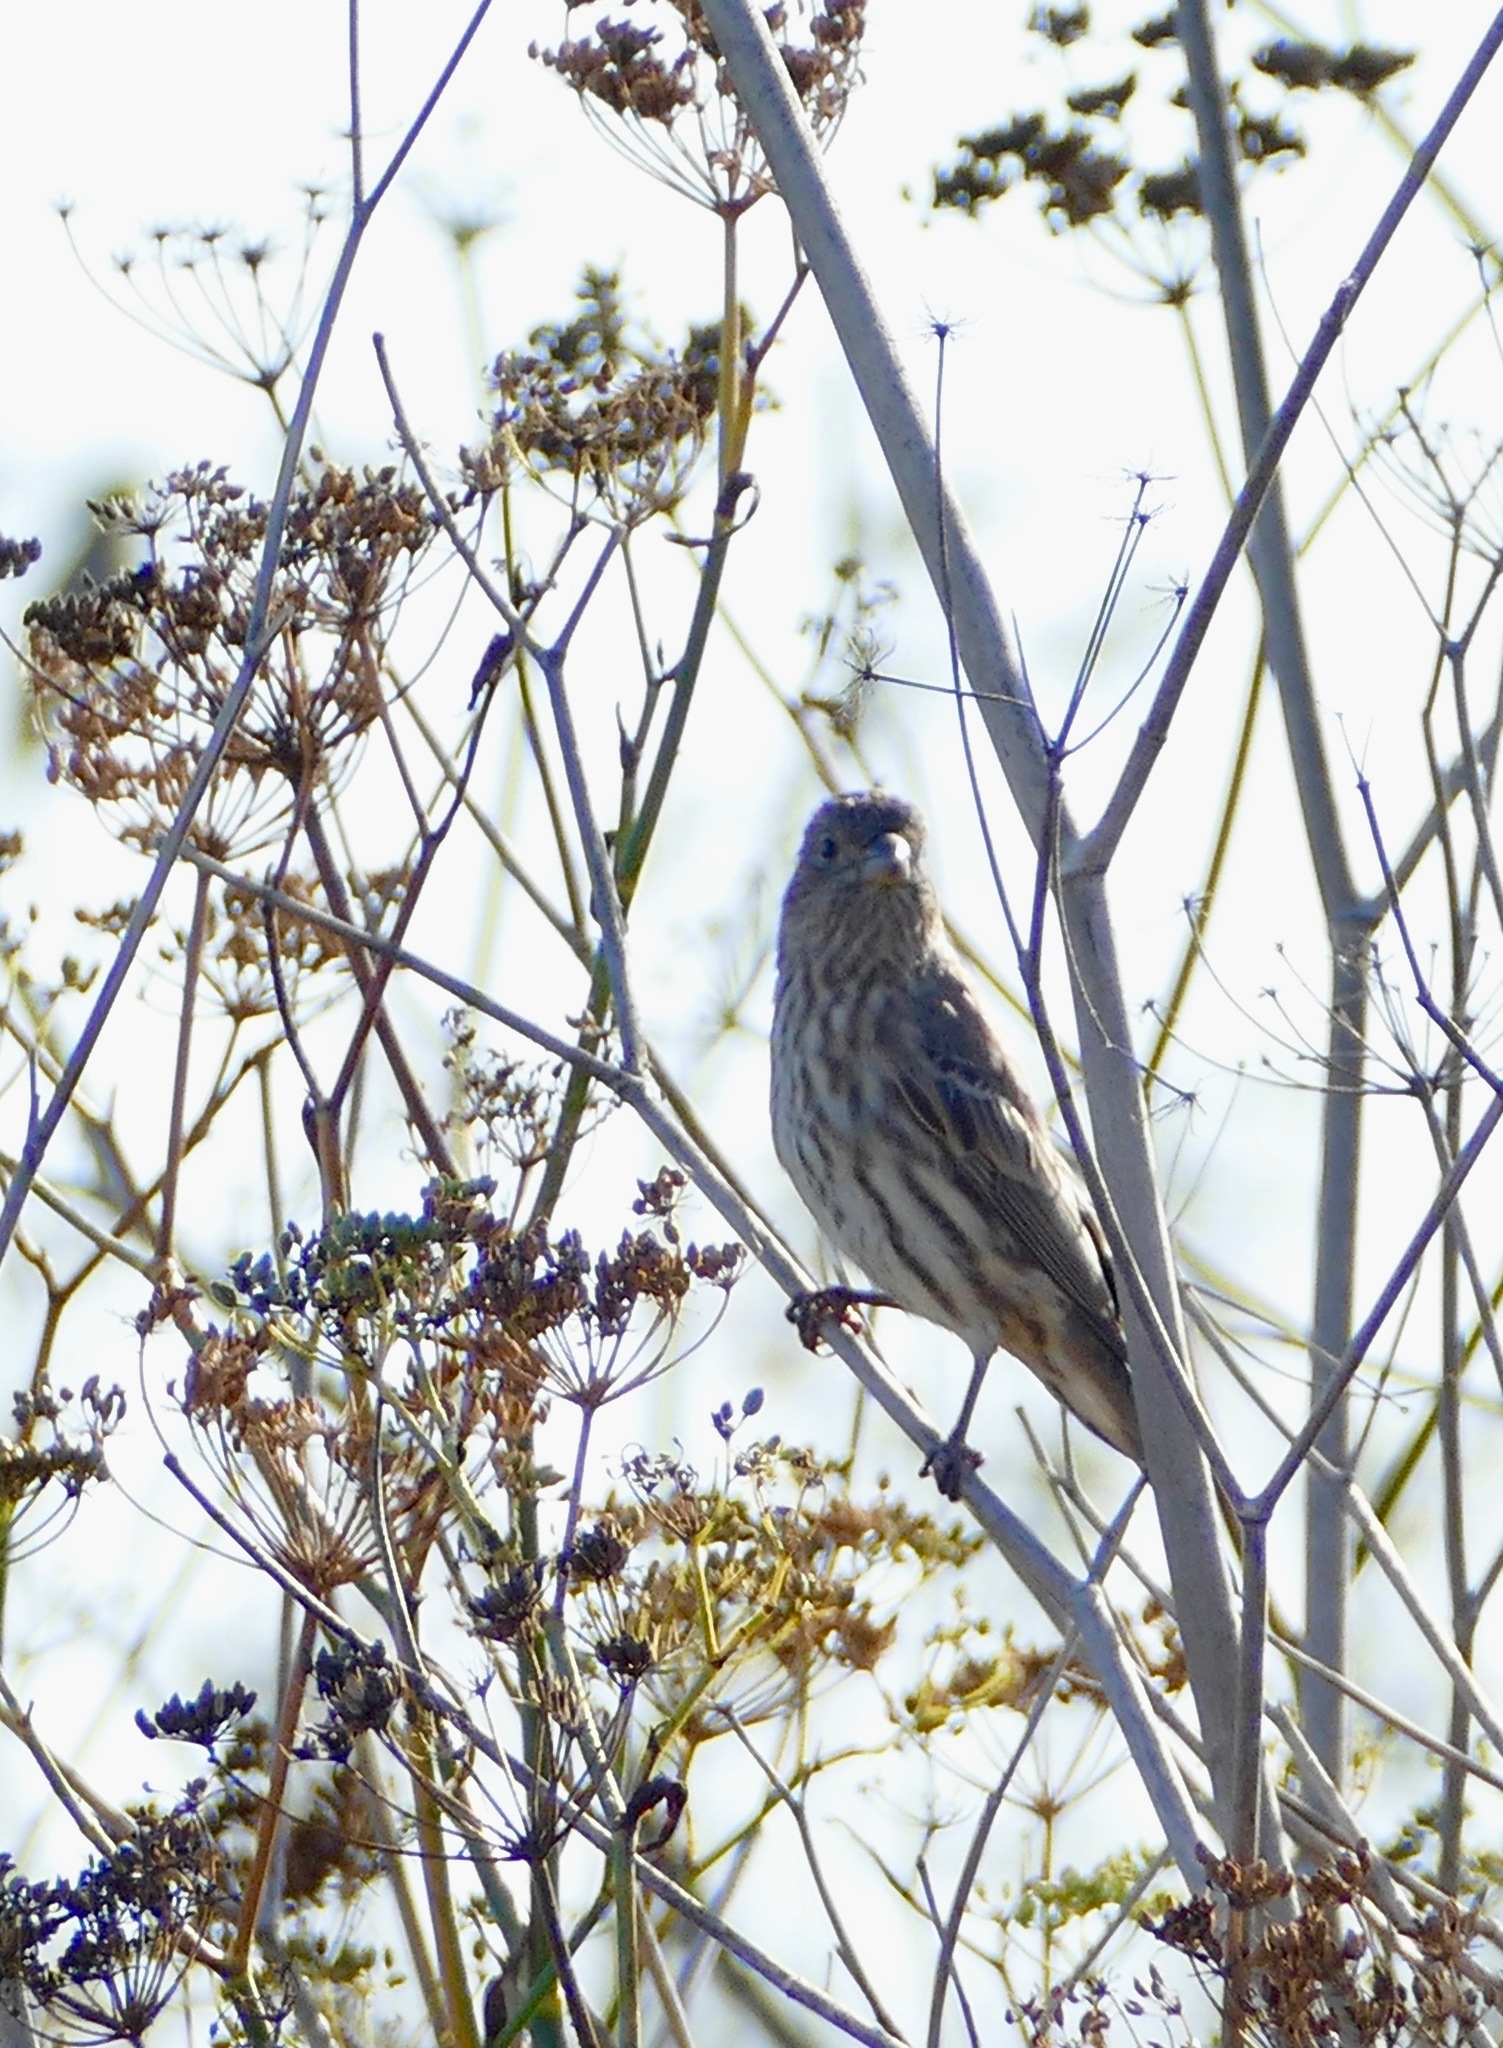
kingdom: Animalia
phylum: Chordata
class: Aves
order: Passeriformes
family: Fringillidae
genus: Haemorhous
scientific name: Haemorhous mexicanus
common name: House finch
